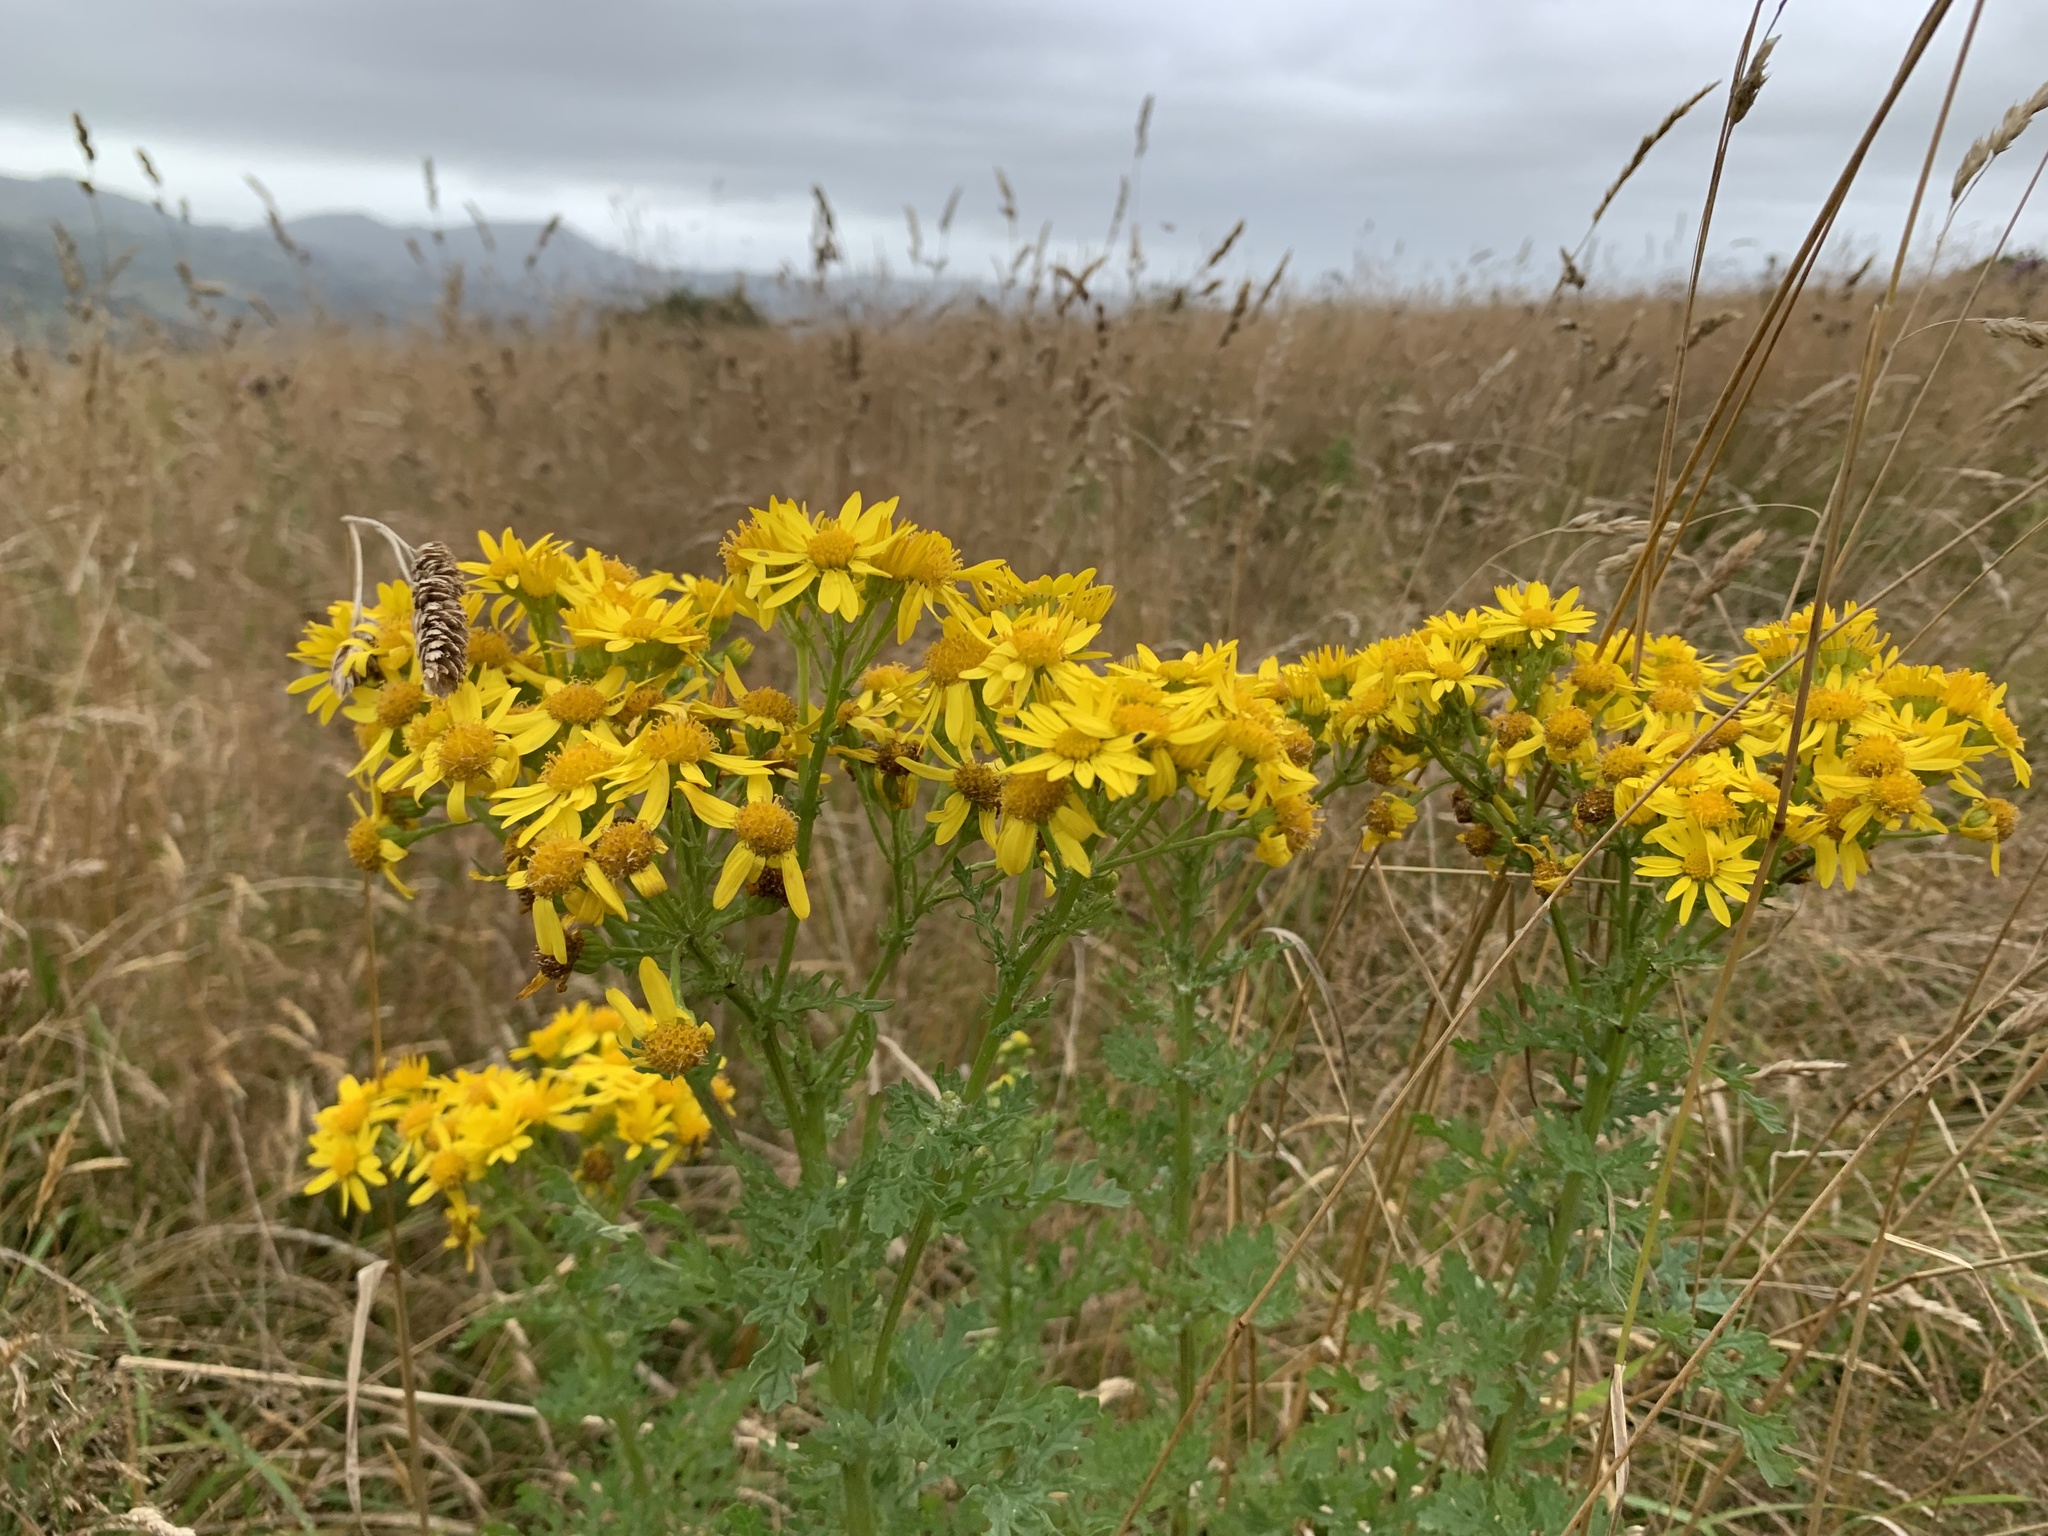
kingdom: Plantae
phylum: Tracheophyta
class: Magnoliopsida
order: Asterales
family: Asteraceae
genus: Jacobaea
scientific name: Jacobaea vulgaris
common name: Stinking willie
